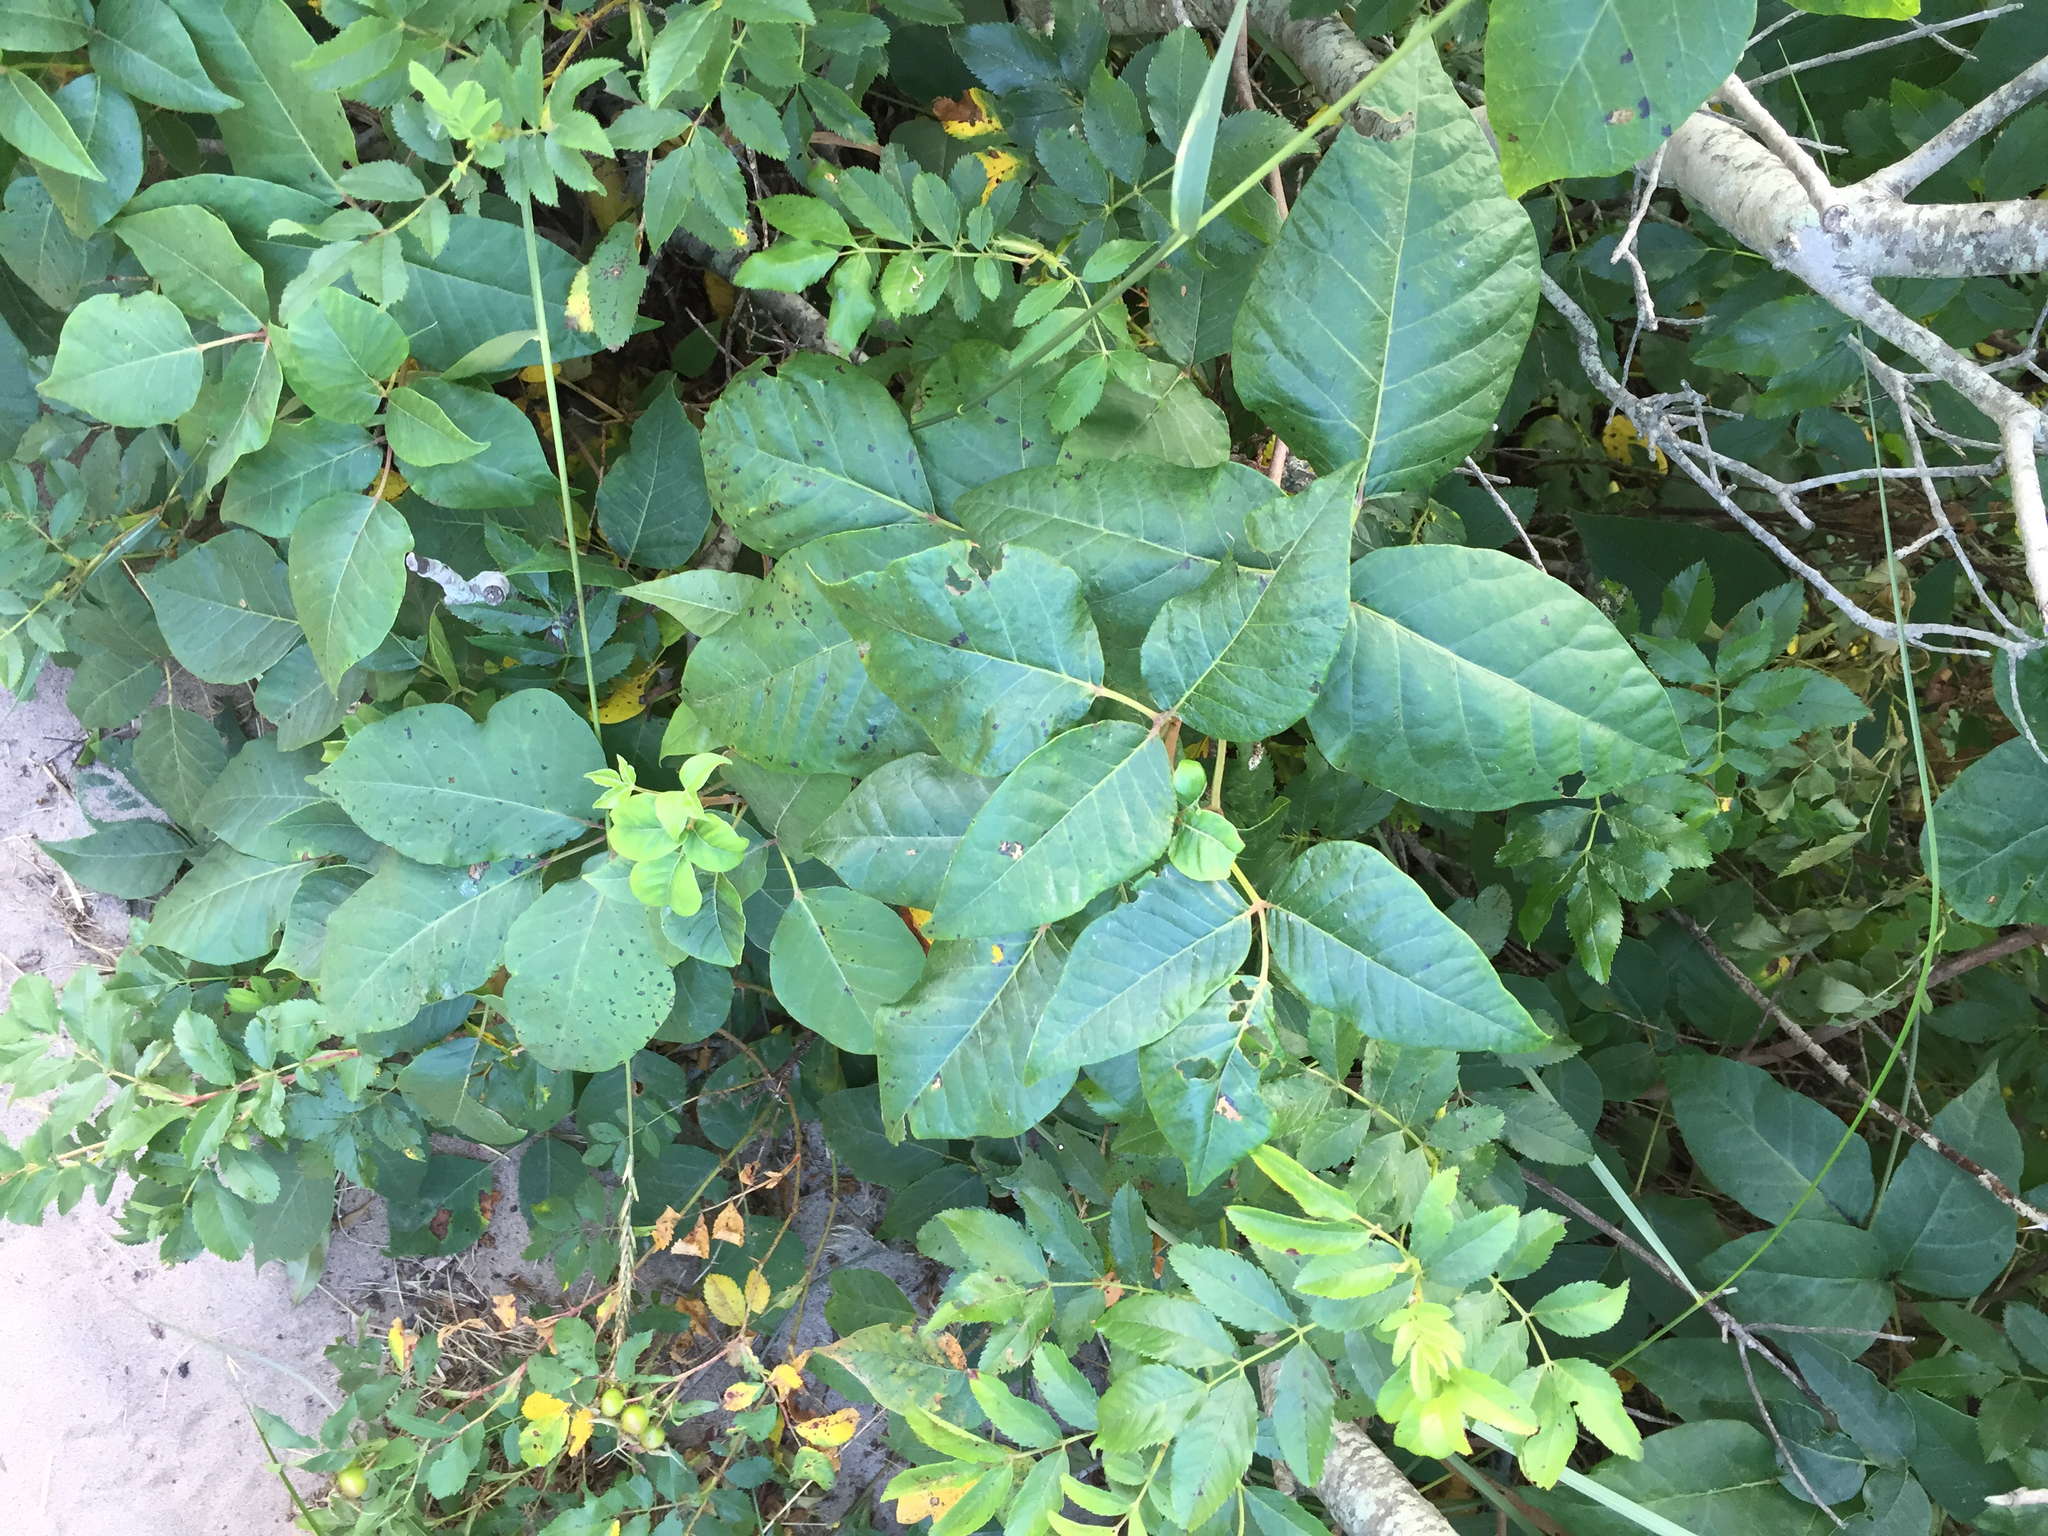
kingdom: Plantae
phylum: Tracheophyta
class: Magnoliopsida
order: Sapindales
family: Anacardiaceae
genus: Toxicodendron
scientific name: Toxicodendron radicans
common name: Poison ivy
